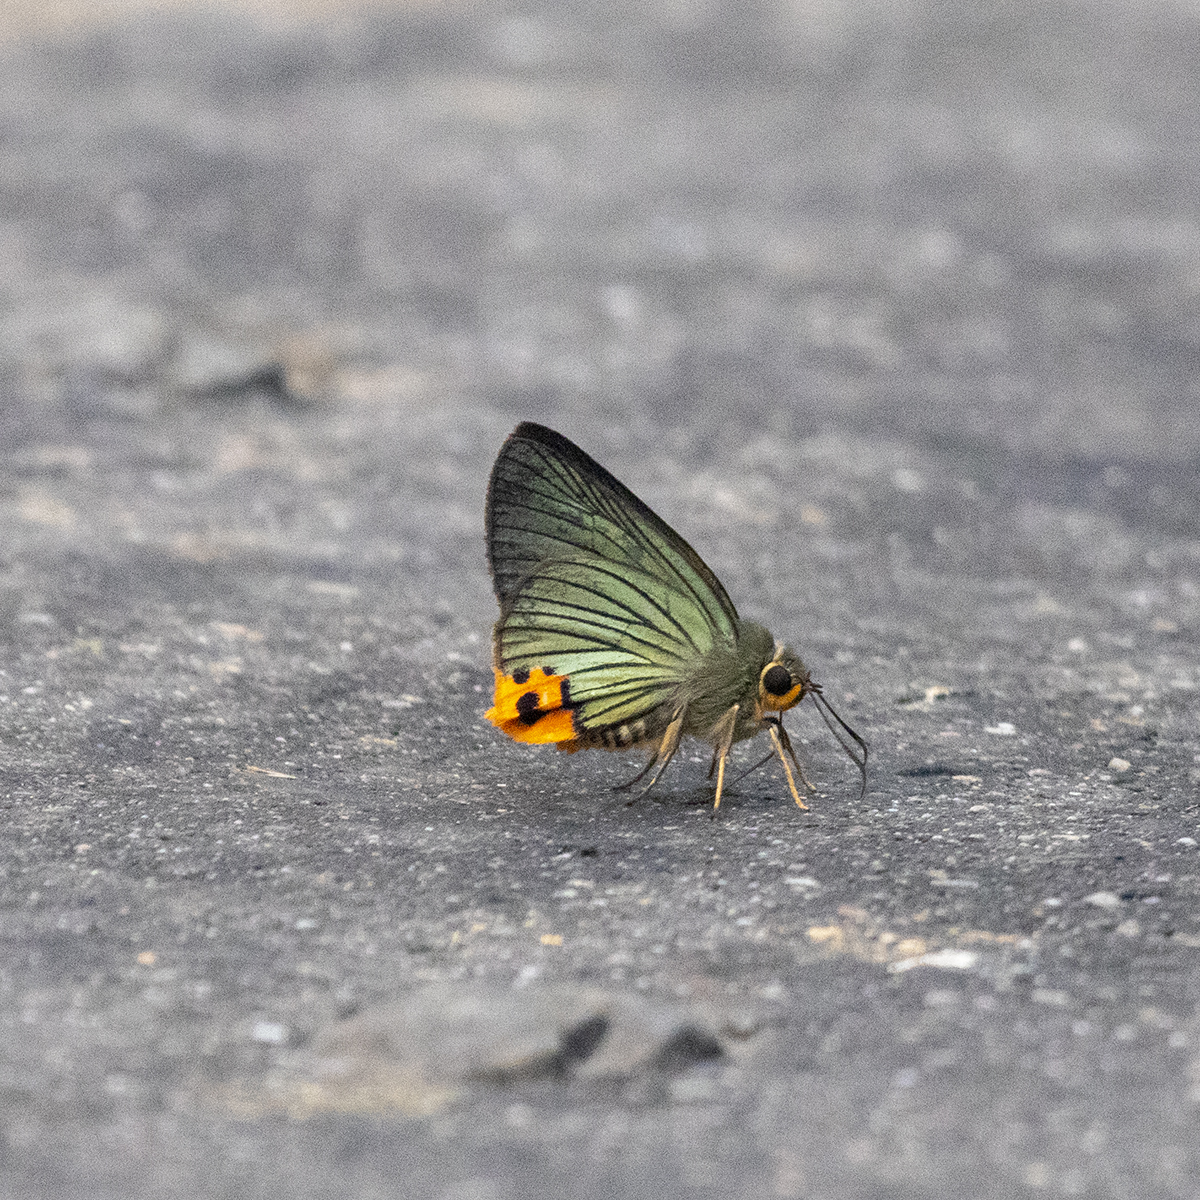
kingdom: Animalia
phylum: Arthropoda
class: Insecta
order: Lepidoptera
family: Hesperiidae
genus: Choaspes
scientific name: Choaspes benjaminii
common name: Indian awlking
